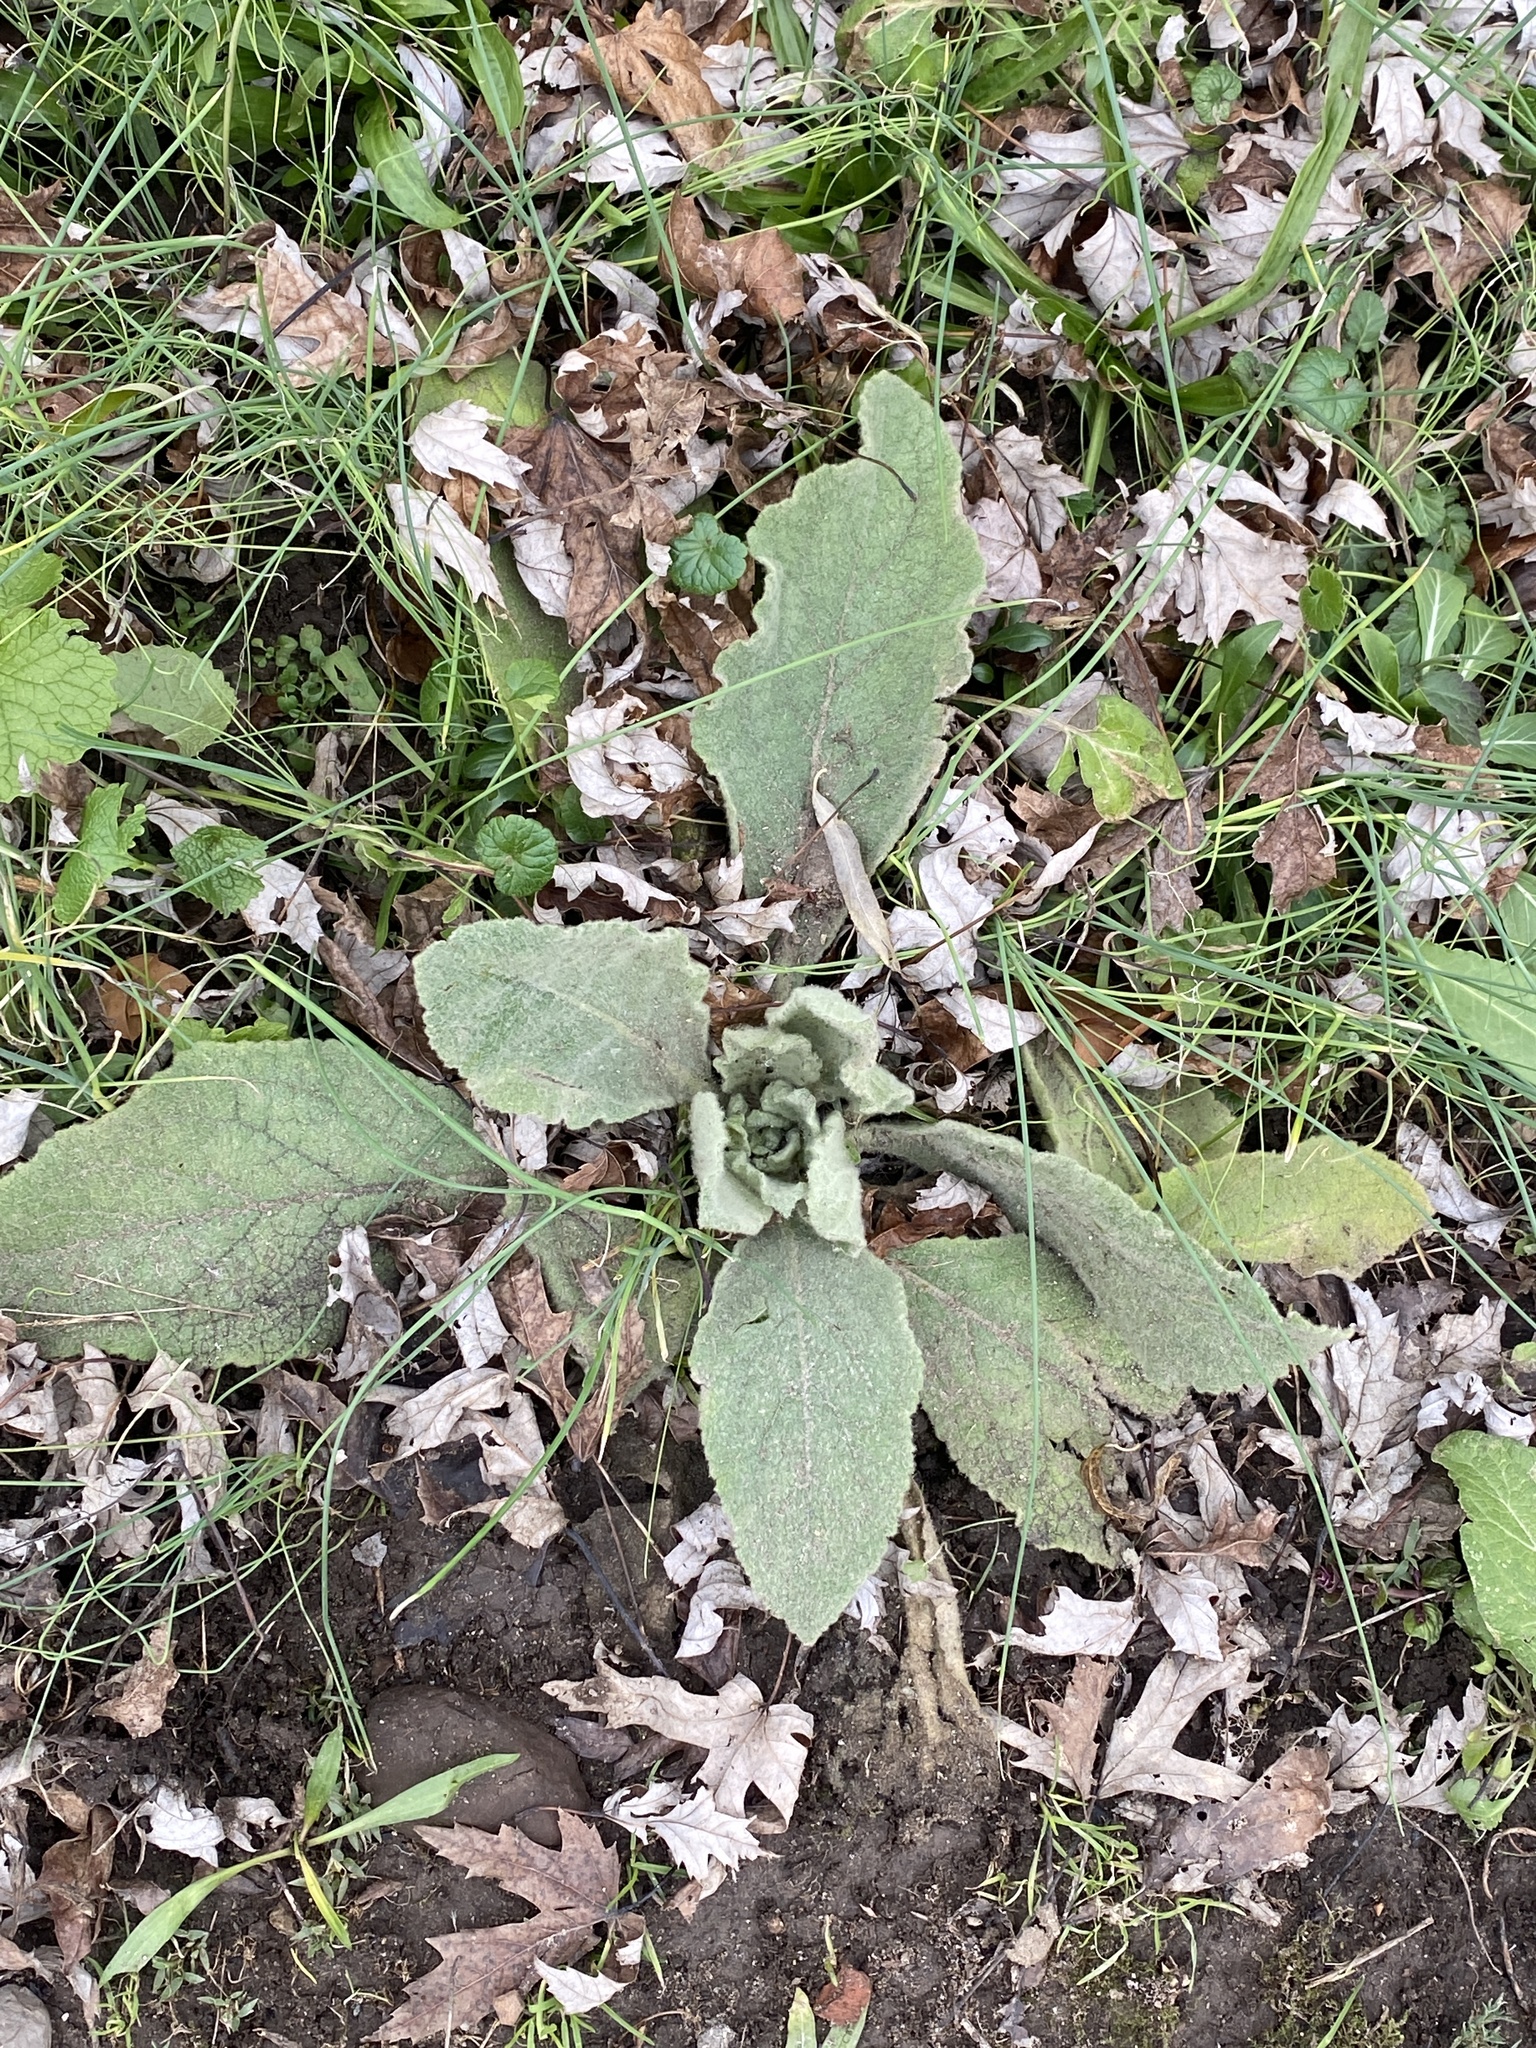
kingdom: Plantae
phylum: Tracheophyta
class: Magnoliopsida
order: Lamiales
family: Scrophulariaceae
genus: Verbascum
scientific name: Verbascum thapsus
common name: Common mullein
